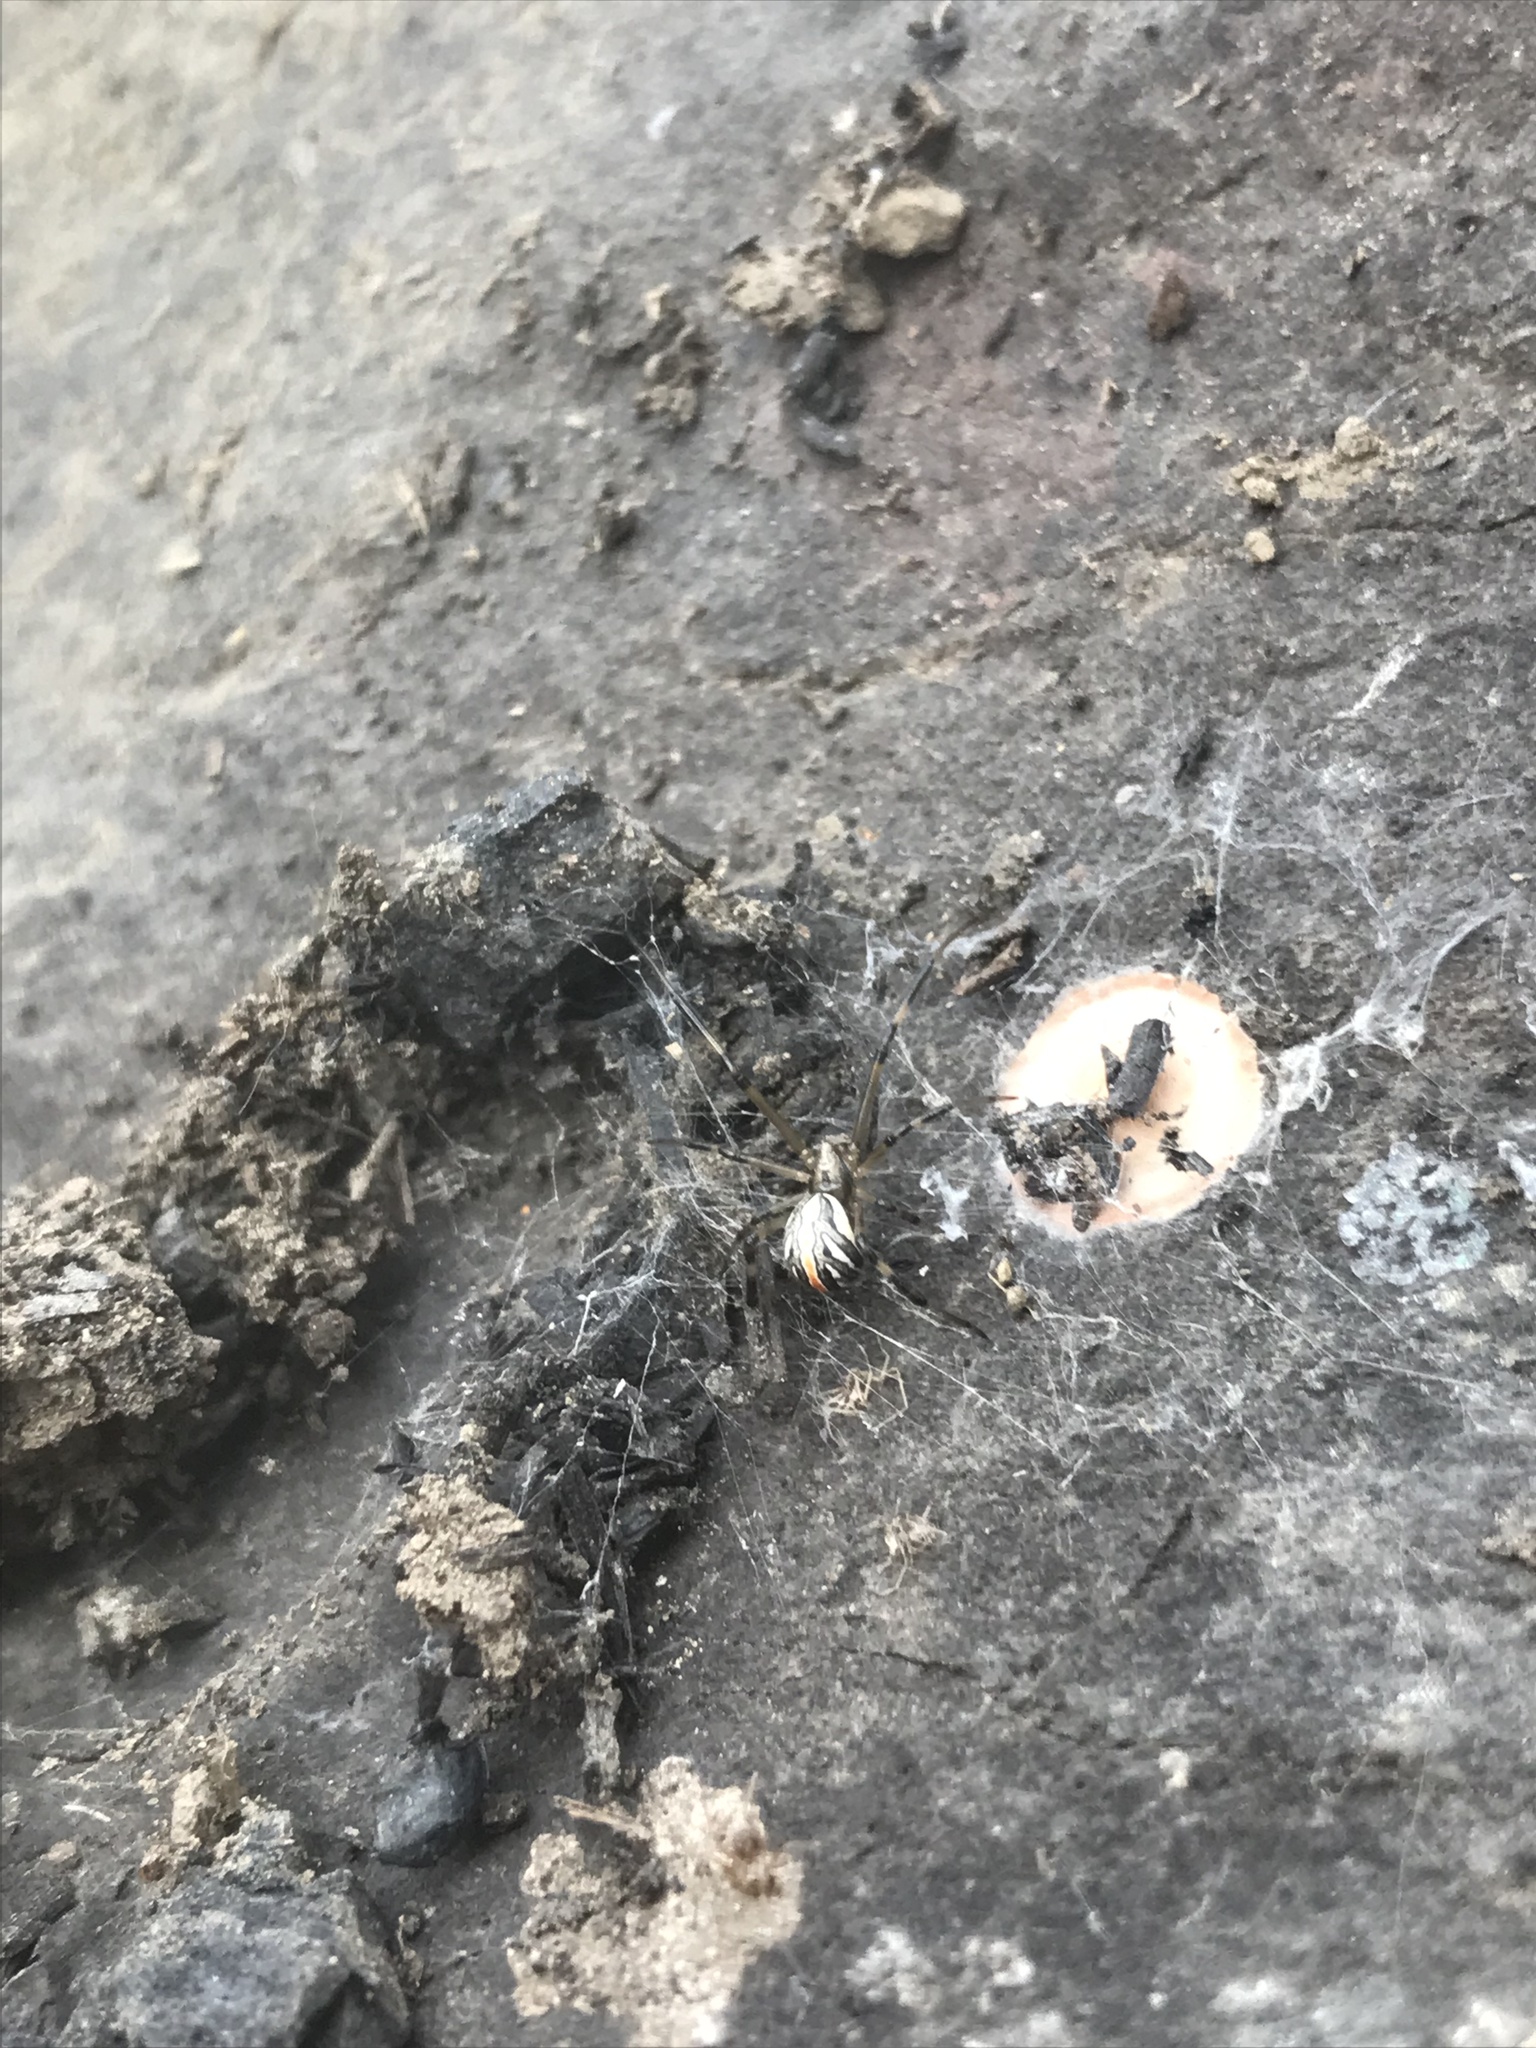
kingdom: Animalia
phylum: Arthropoda
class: Arachnida
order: Araneae
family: Theridiidae
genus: Latrodectus
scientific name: Latrodectus hesperus
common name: Western black widow
